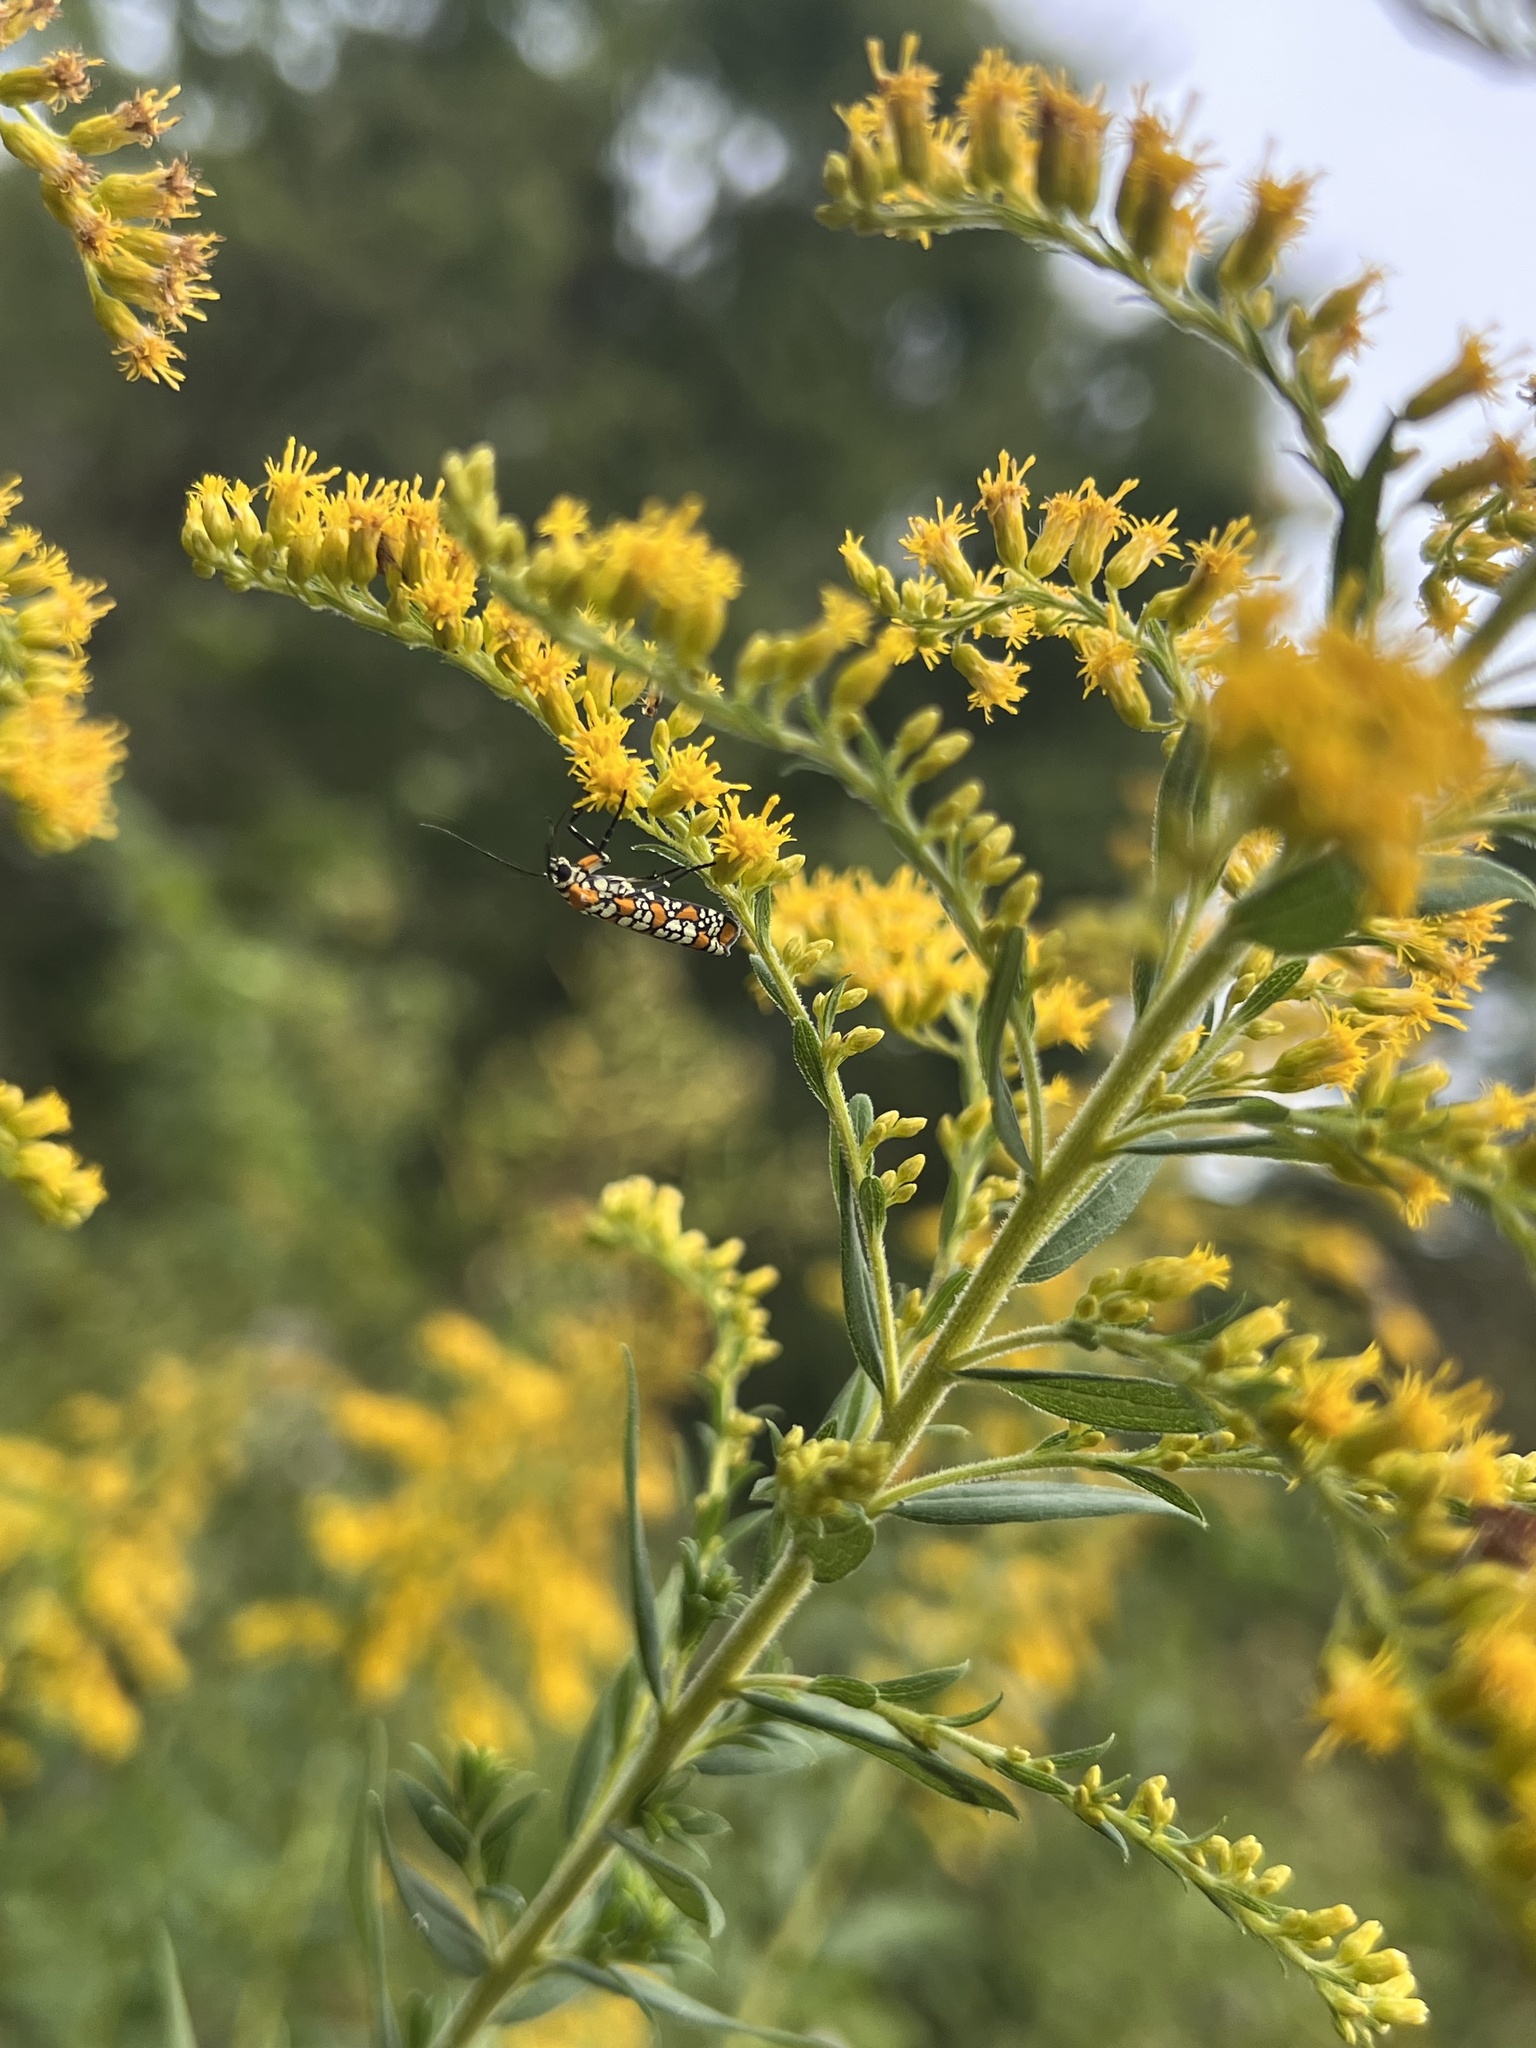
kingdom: Animalia
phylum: Arthropoda
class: Insecta
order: Lepidoptera
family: Attevidae
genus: Atteva
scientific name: Atteva punctella
